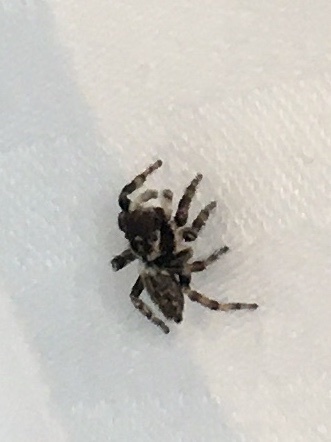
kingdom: Animalia
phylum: Arthropoda
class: Arachnida
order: Araneae
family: Salticidae
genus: Maratus
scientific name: Maratus griseus
